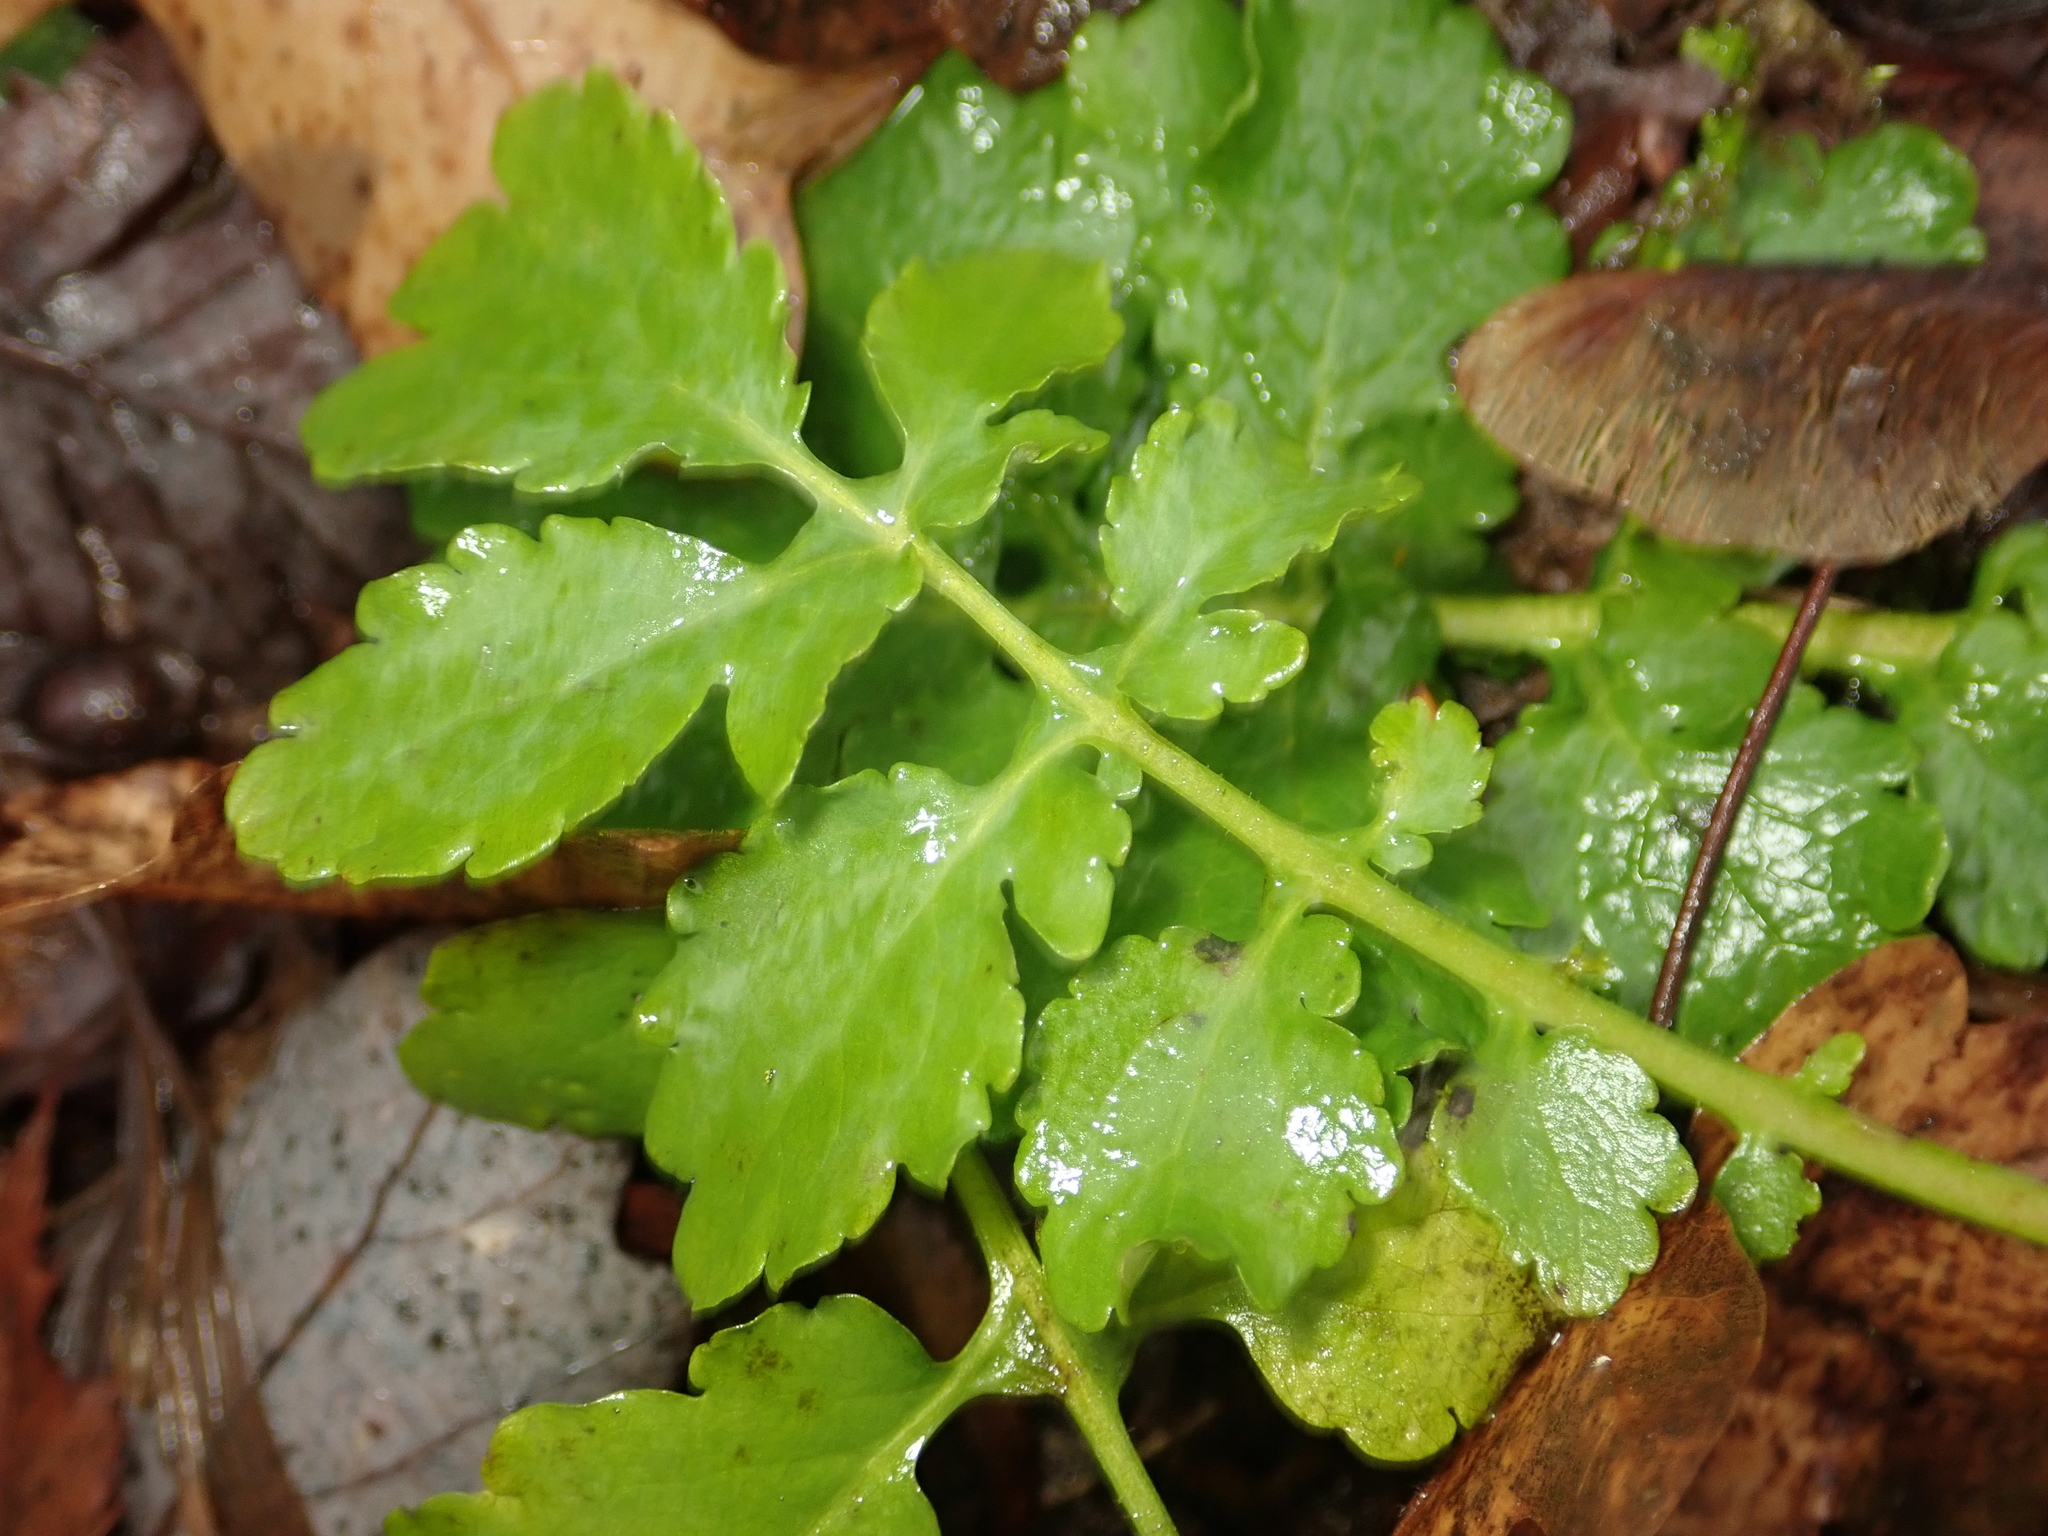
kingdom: Plantae
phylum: Tracheophyta
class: Magnoliopsida
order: Ranunculales
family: Papaveraceae
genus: Chelidonium
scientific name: Chelidonium majus
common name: Greater celandine
